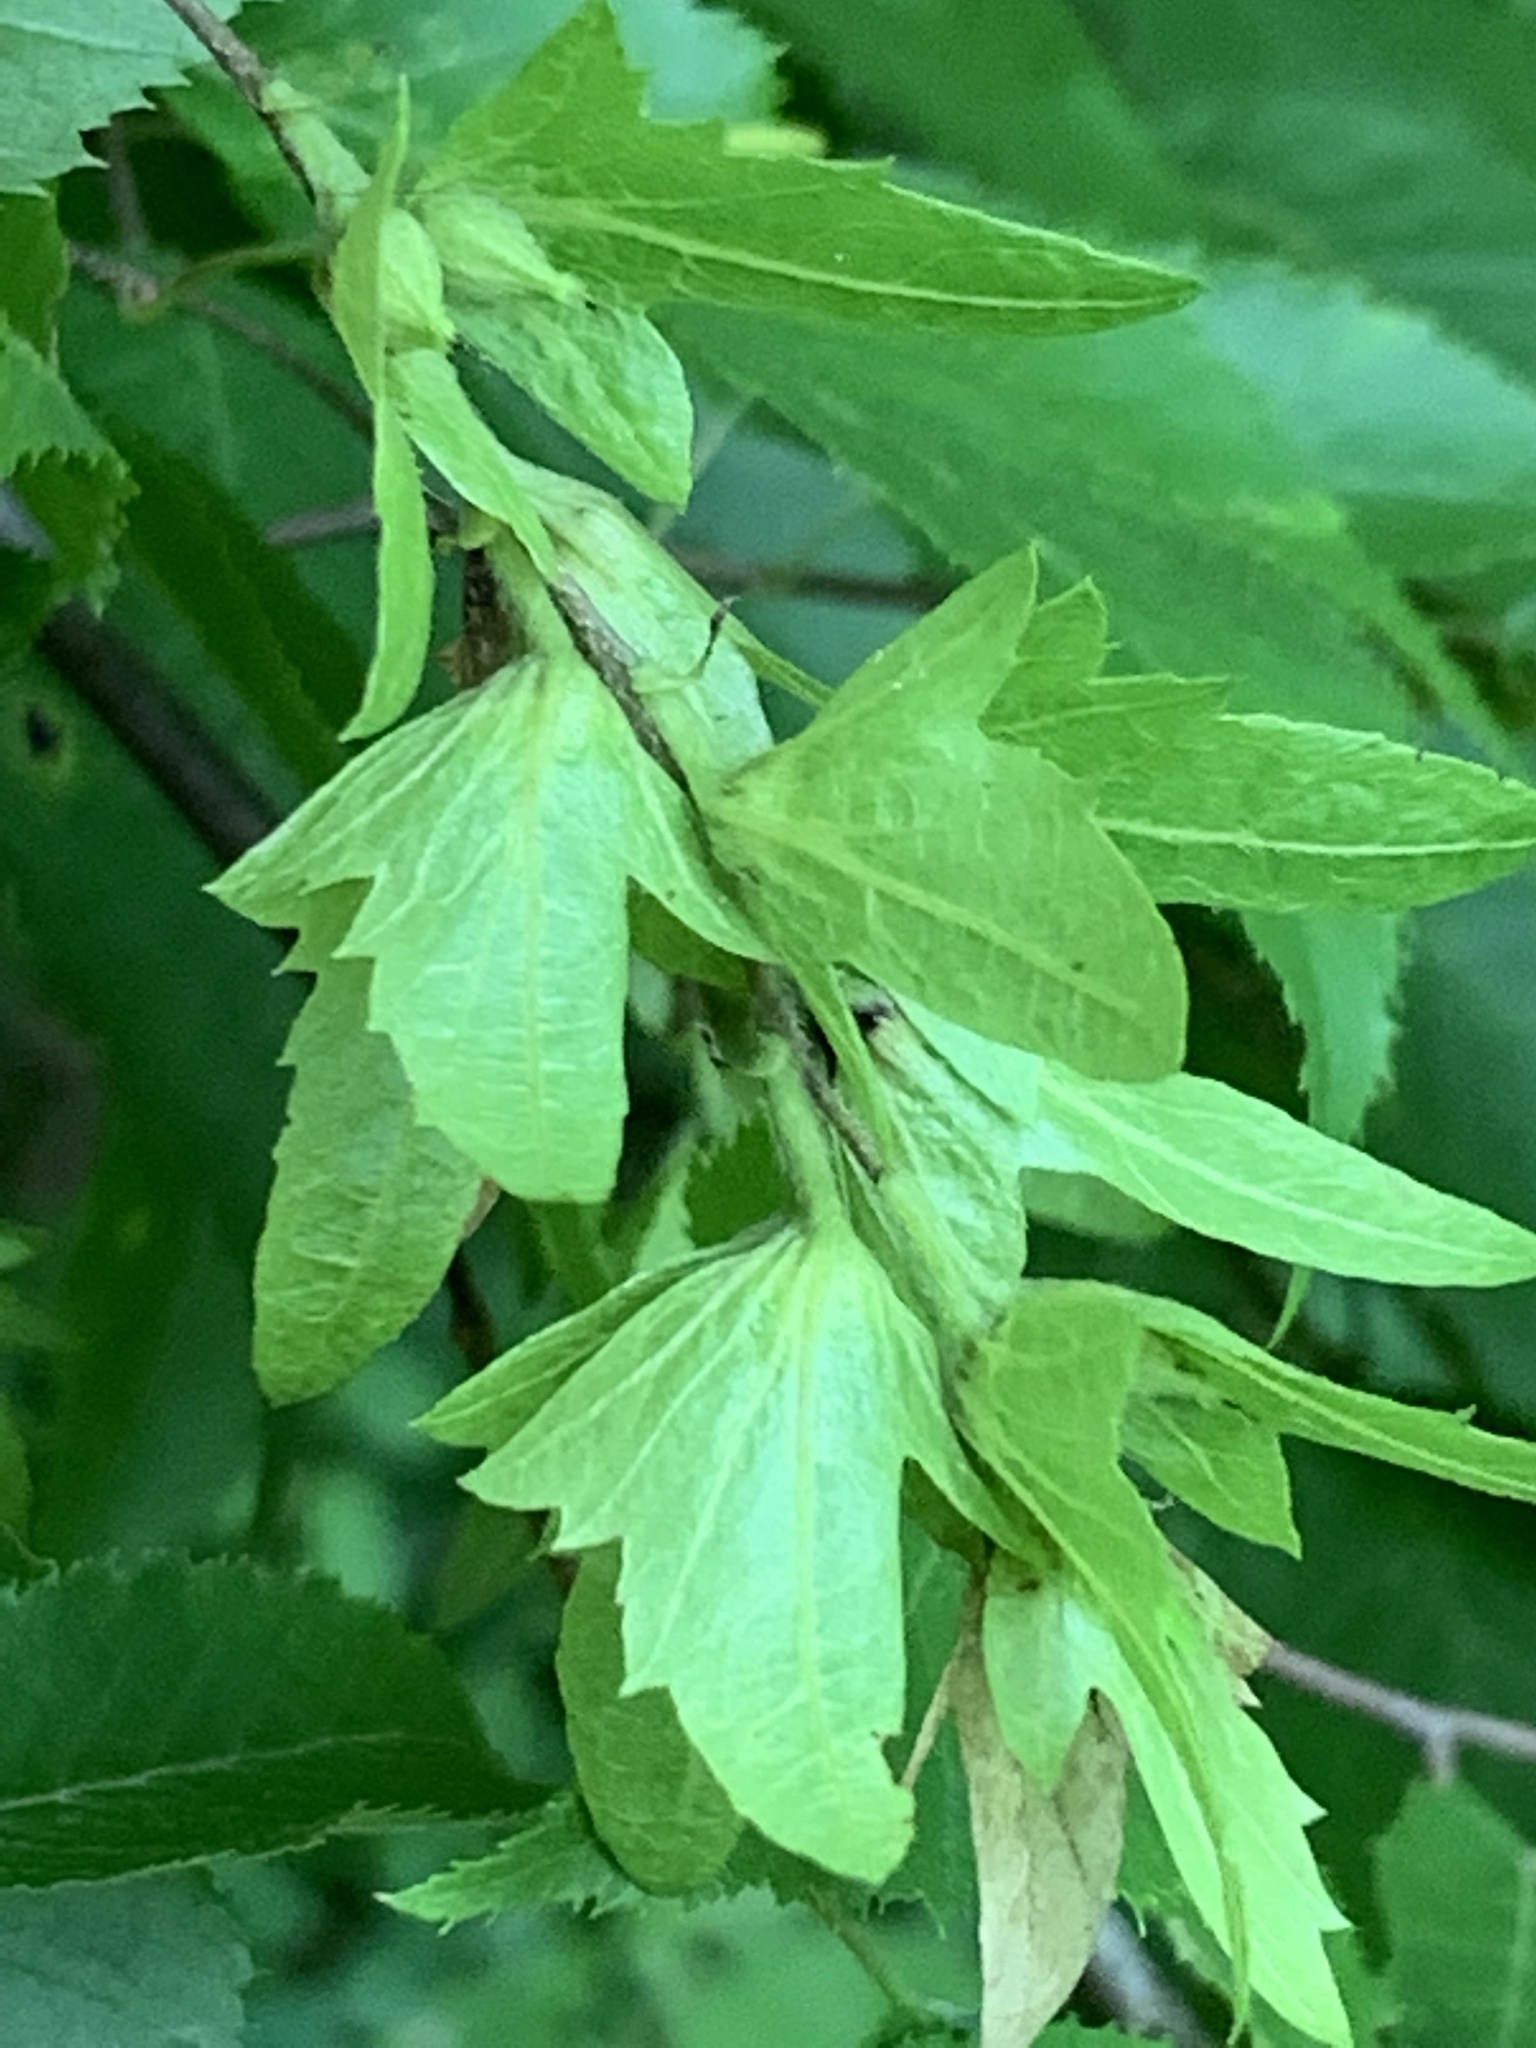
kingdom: Plantae
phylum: Tracheophyta
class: Magnoliopsida
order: Fagales
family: Betulaceae
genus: Carpinus
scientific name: Carpinus caroliniana
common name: American hornbeam
